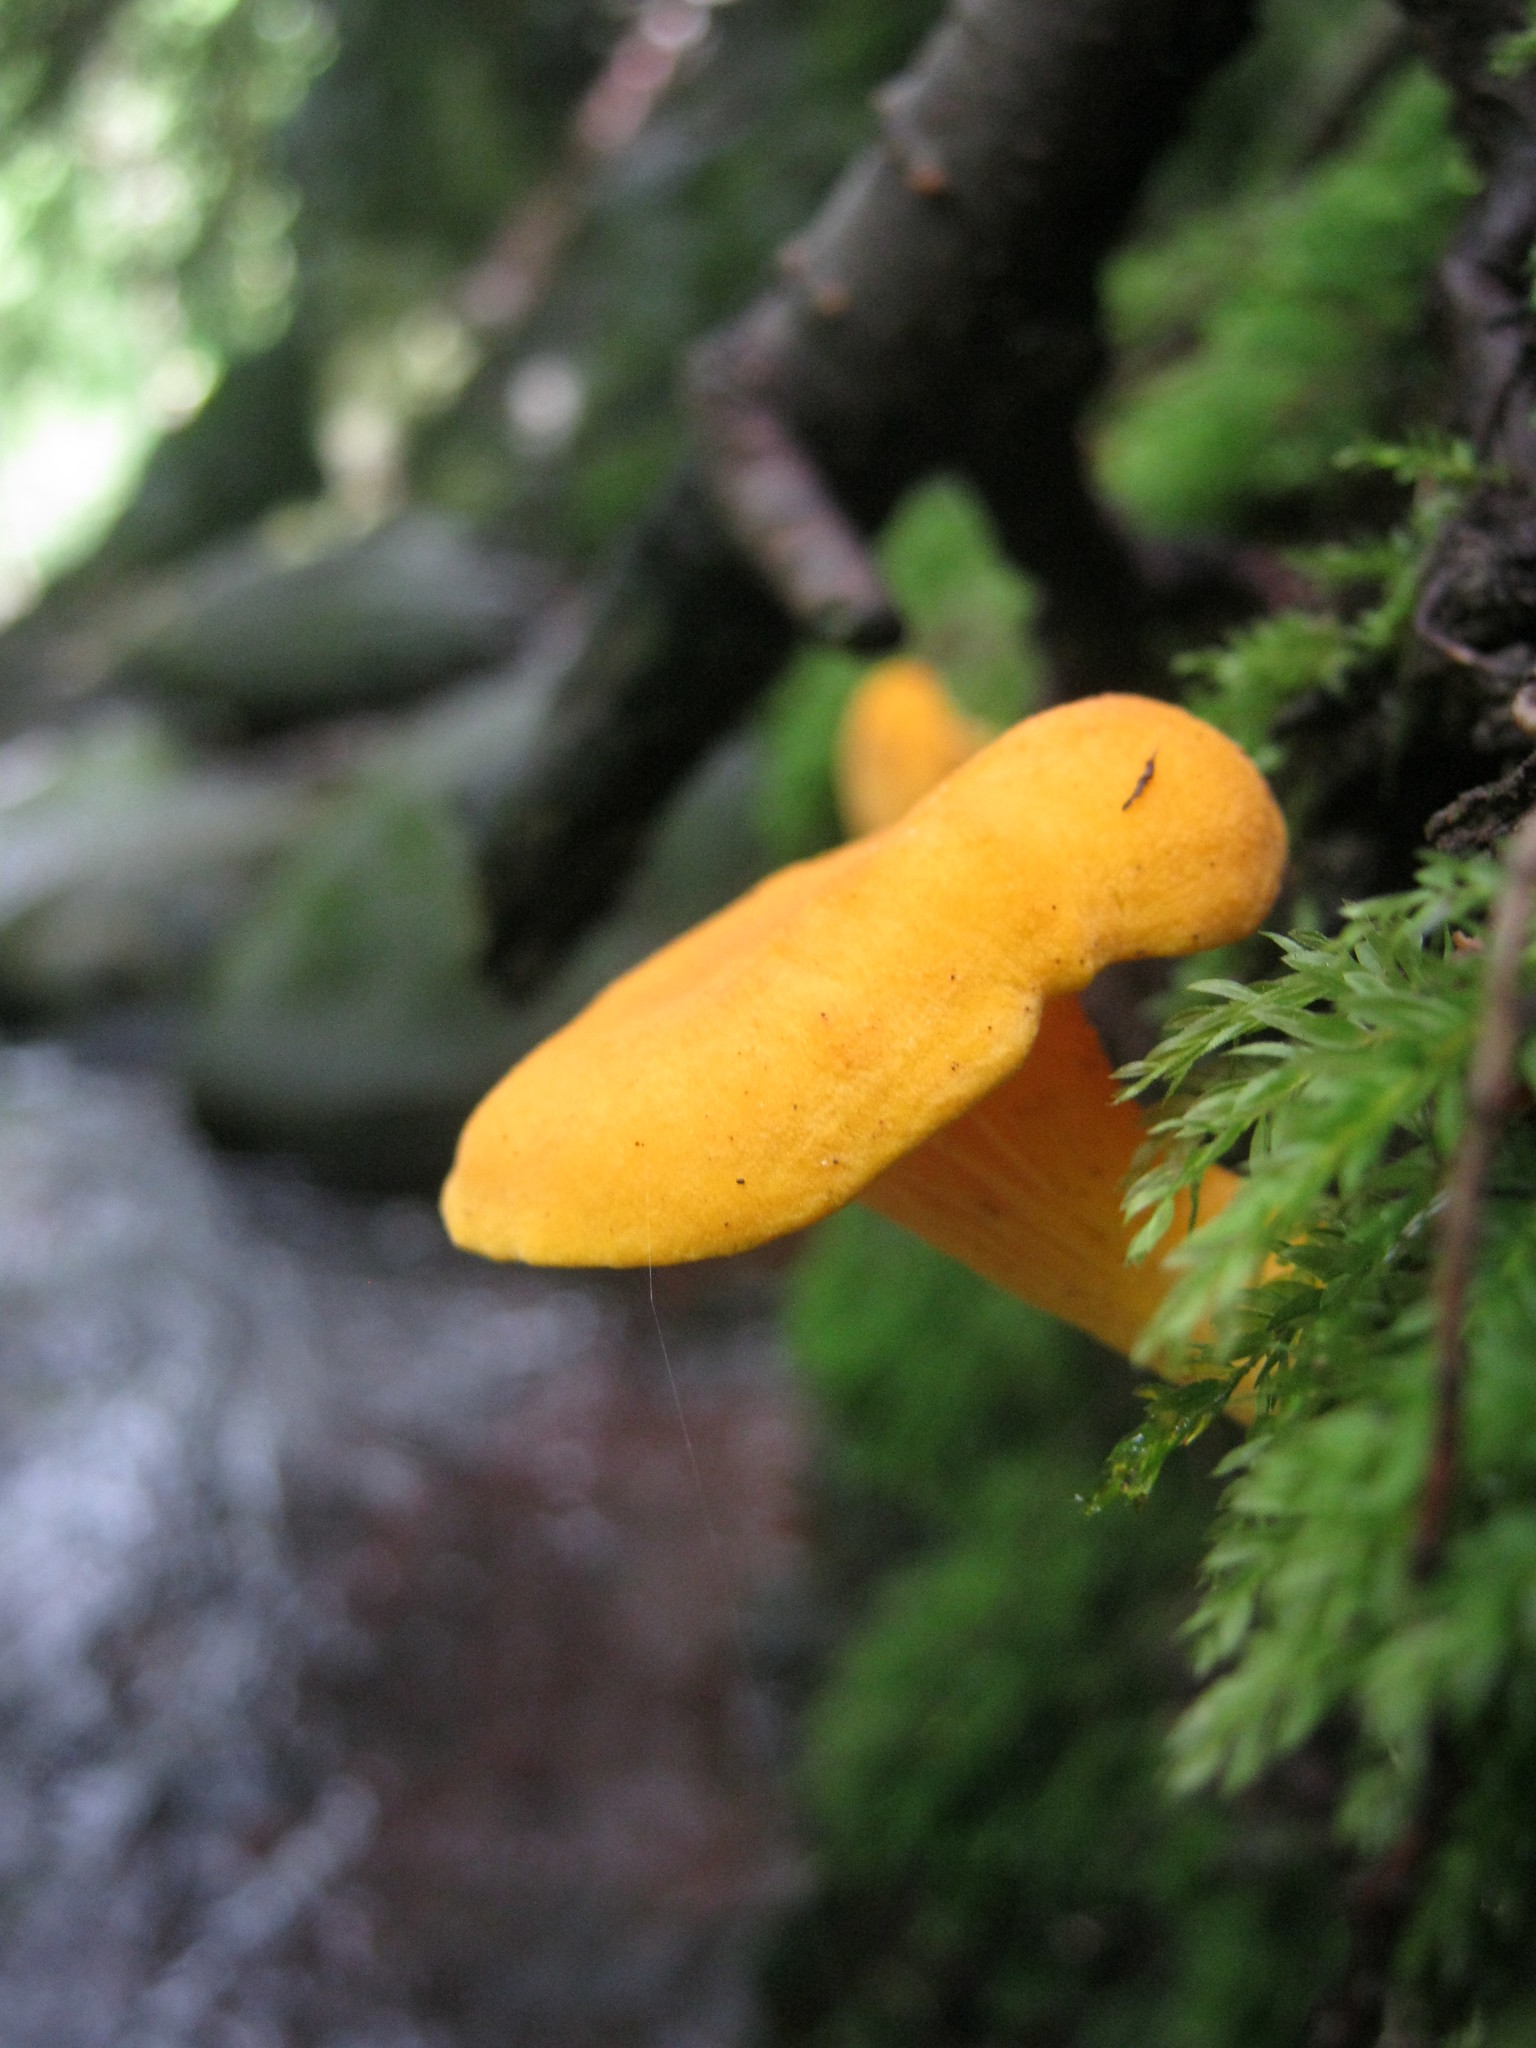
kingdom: Fungi
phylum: Basidiomycota
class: Agaricomycetes
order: Cantharellales
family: Hydnaceae
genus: Cantharellus
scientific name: Cantharellus enelensis
